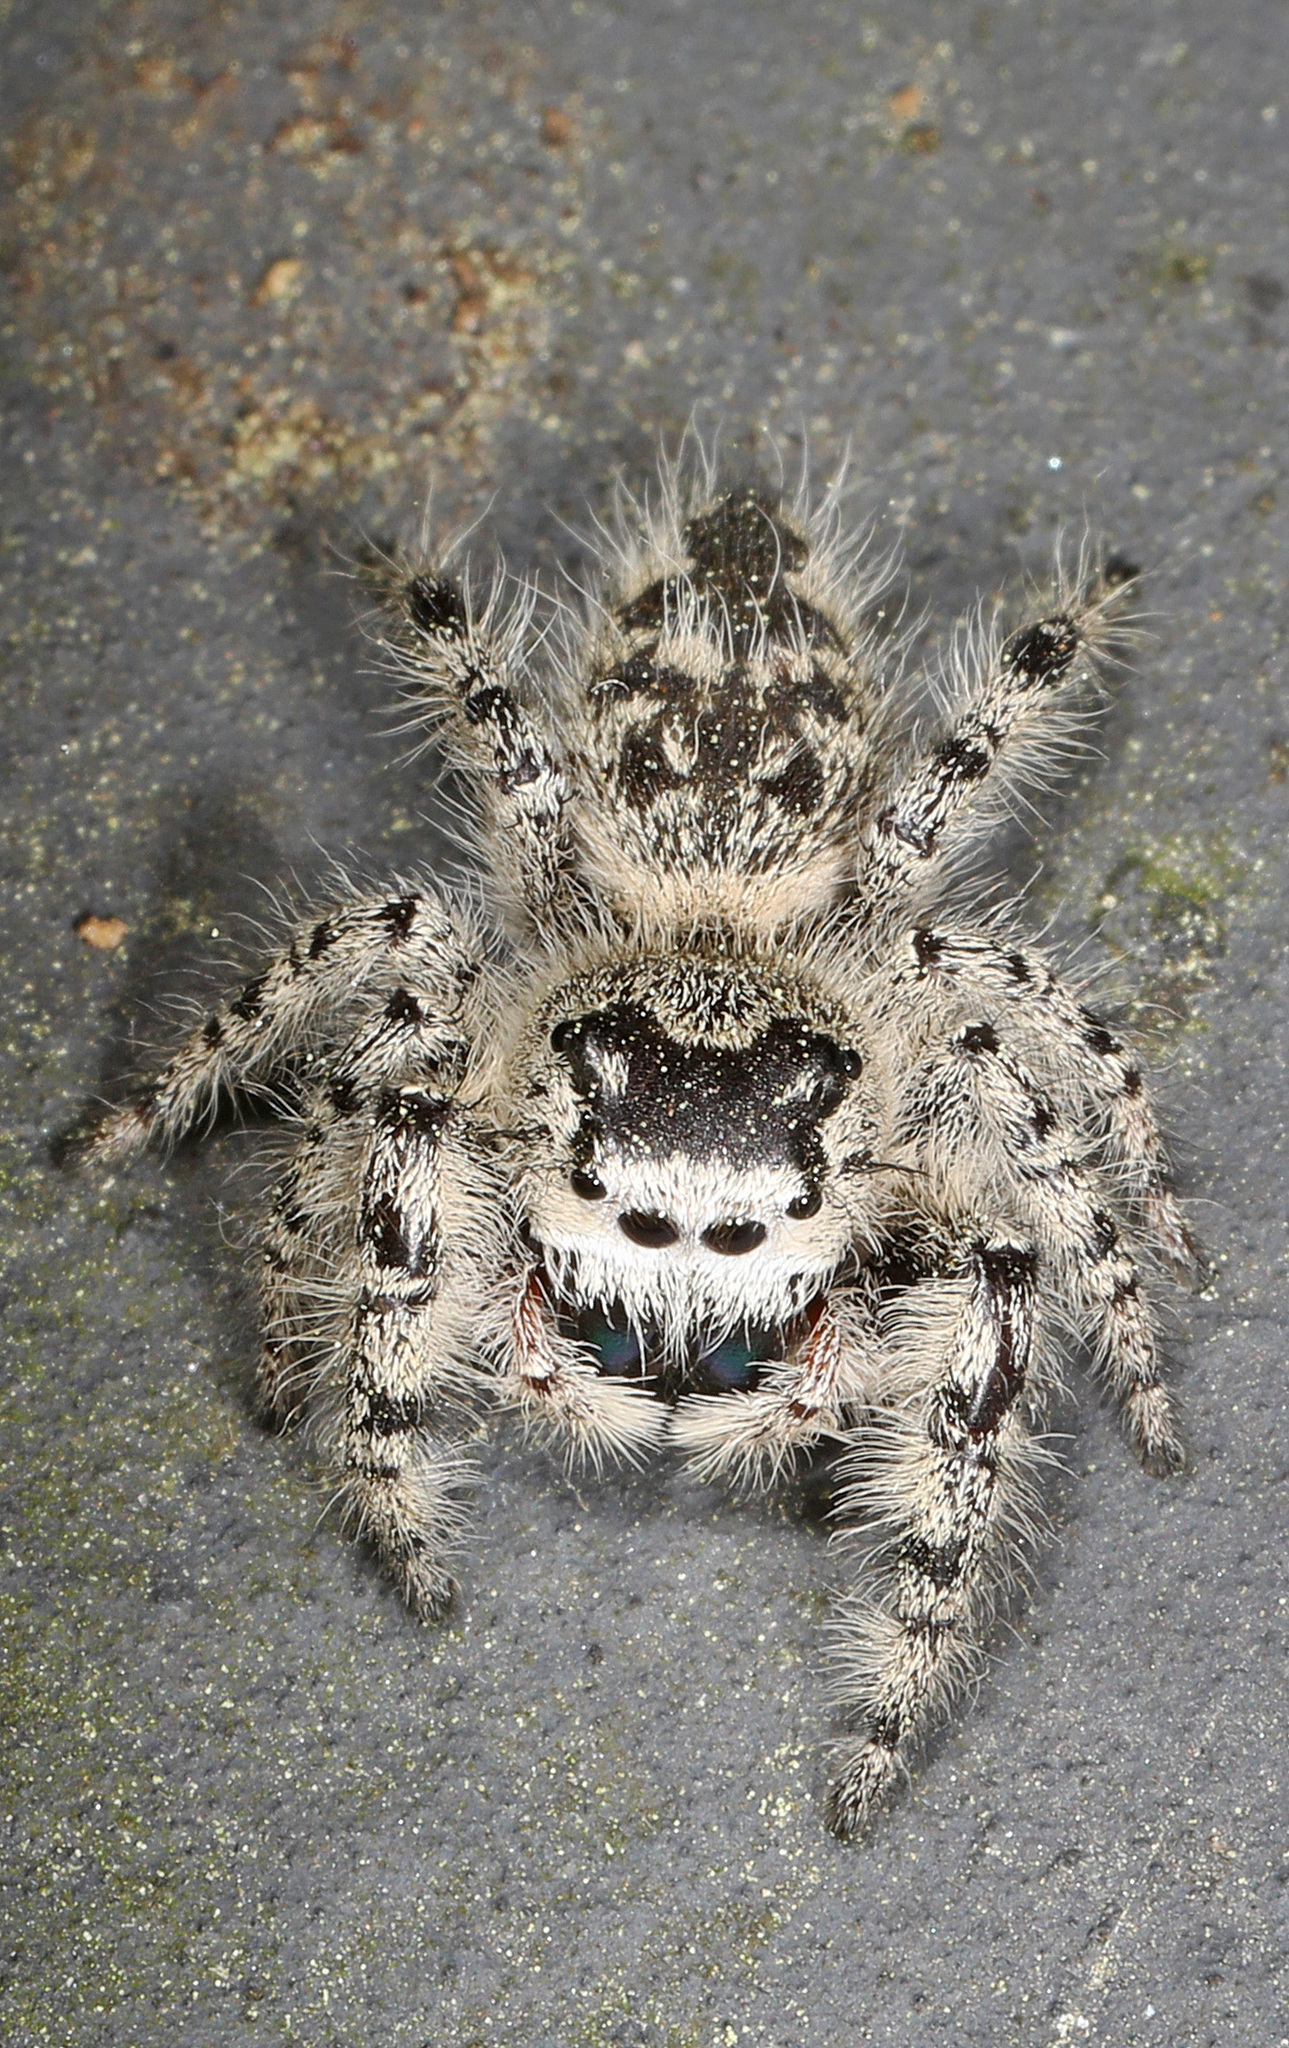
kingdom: Animalia
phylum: Arthropoda
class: Arachnida
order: Araneae
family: Salticidae
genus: Phidippus
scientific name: Phidippus otiosus
